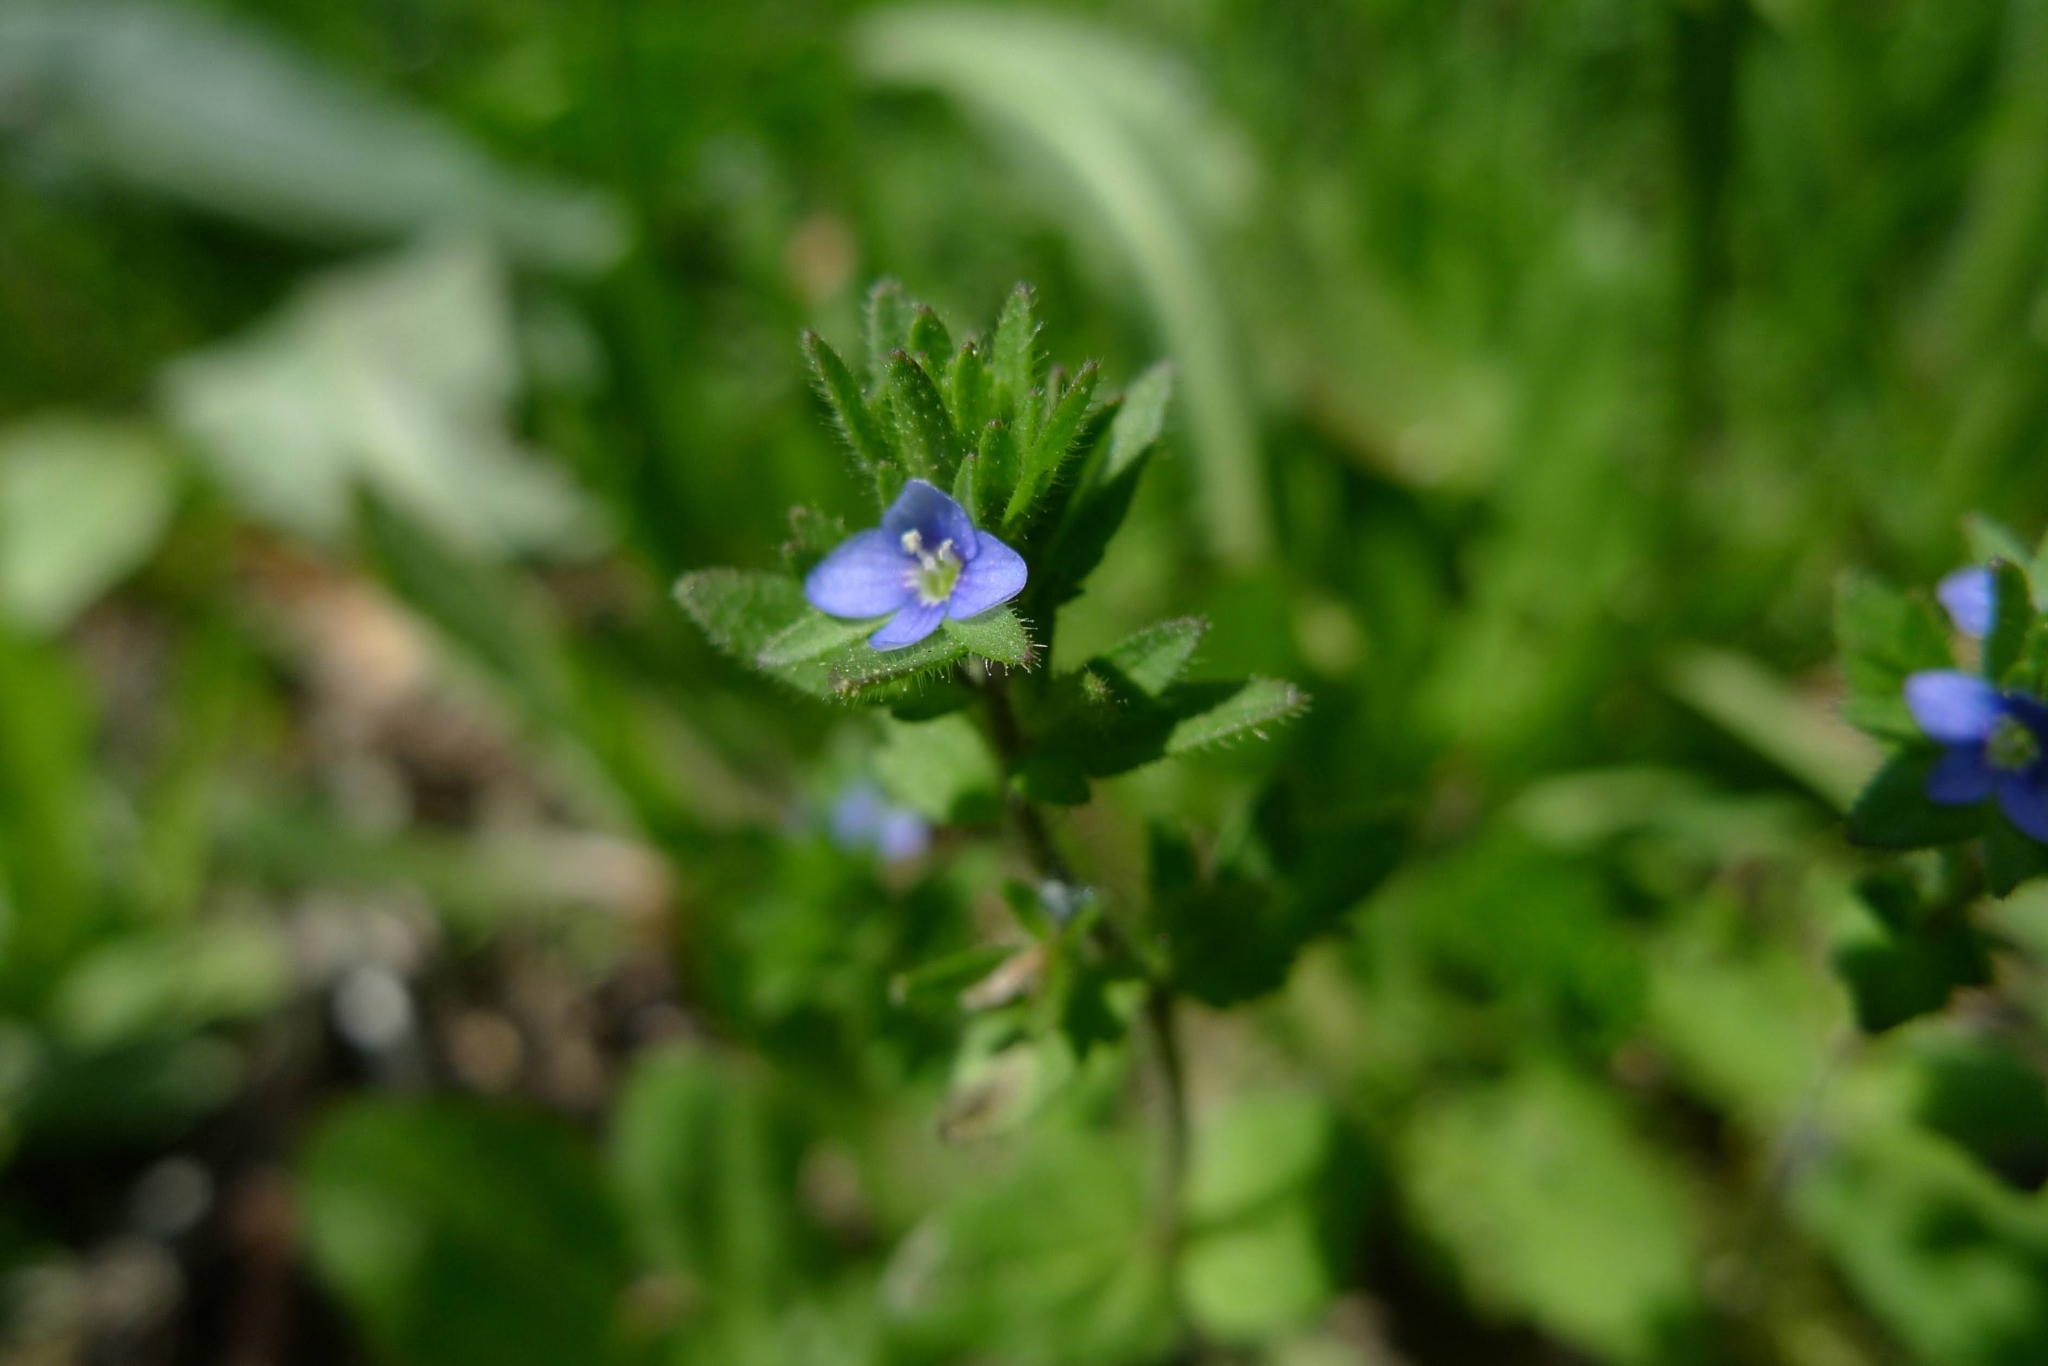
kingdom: Plantae
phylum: Tracheophyta
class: Magnoliopsida
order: Lamiales
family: Plantaginaceae
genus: Veronica
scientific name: Veronica arvensis
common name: Corn speedwell
